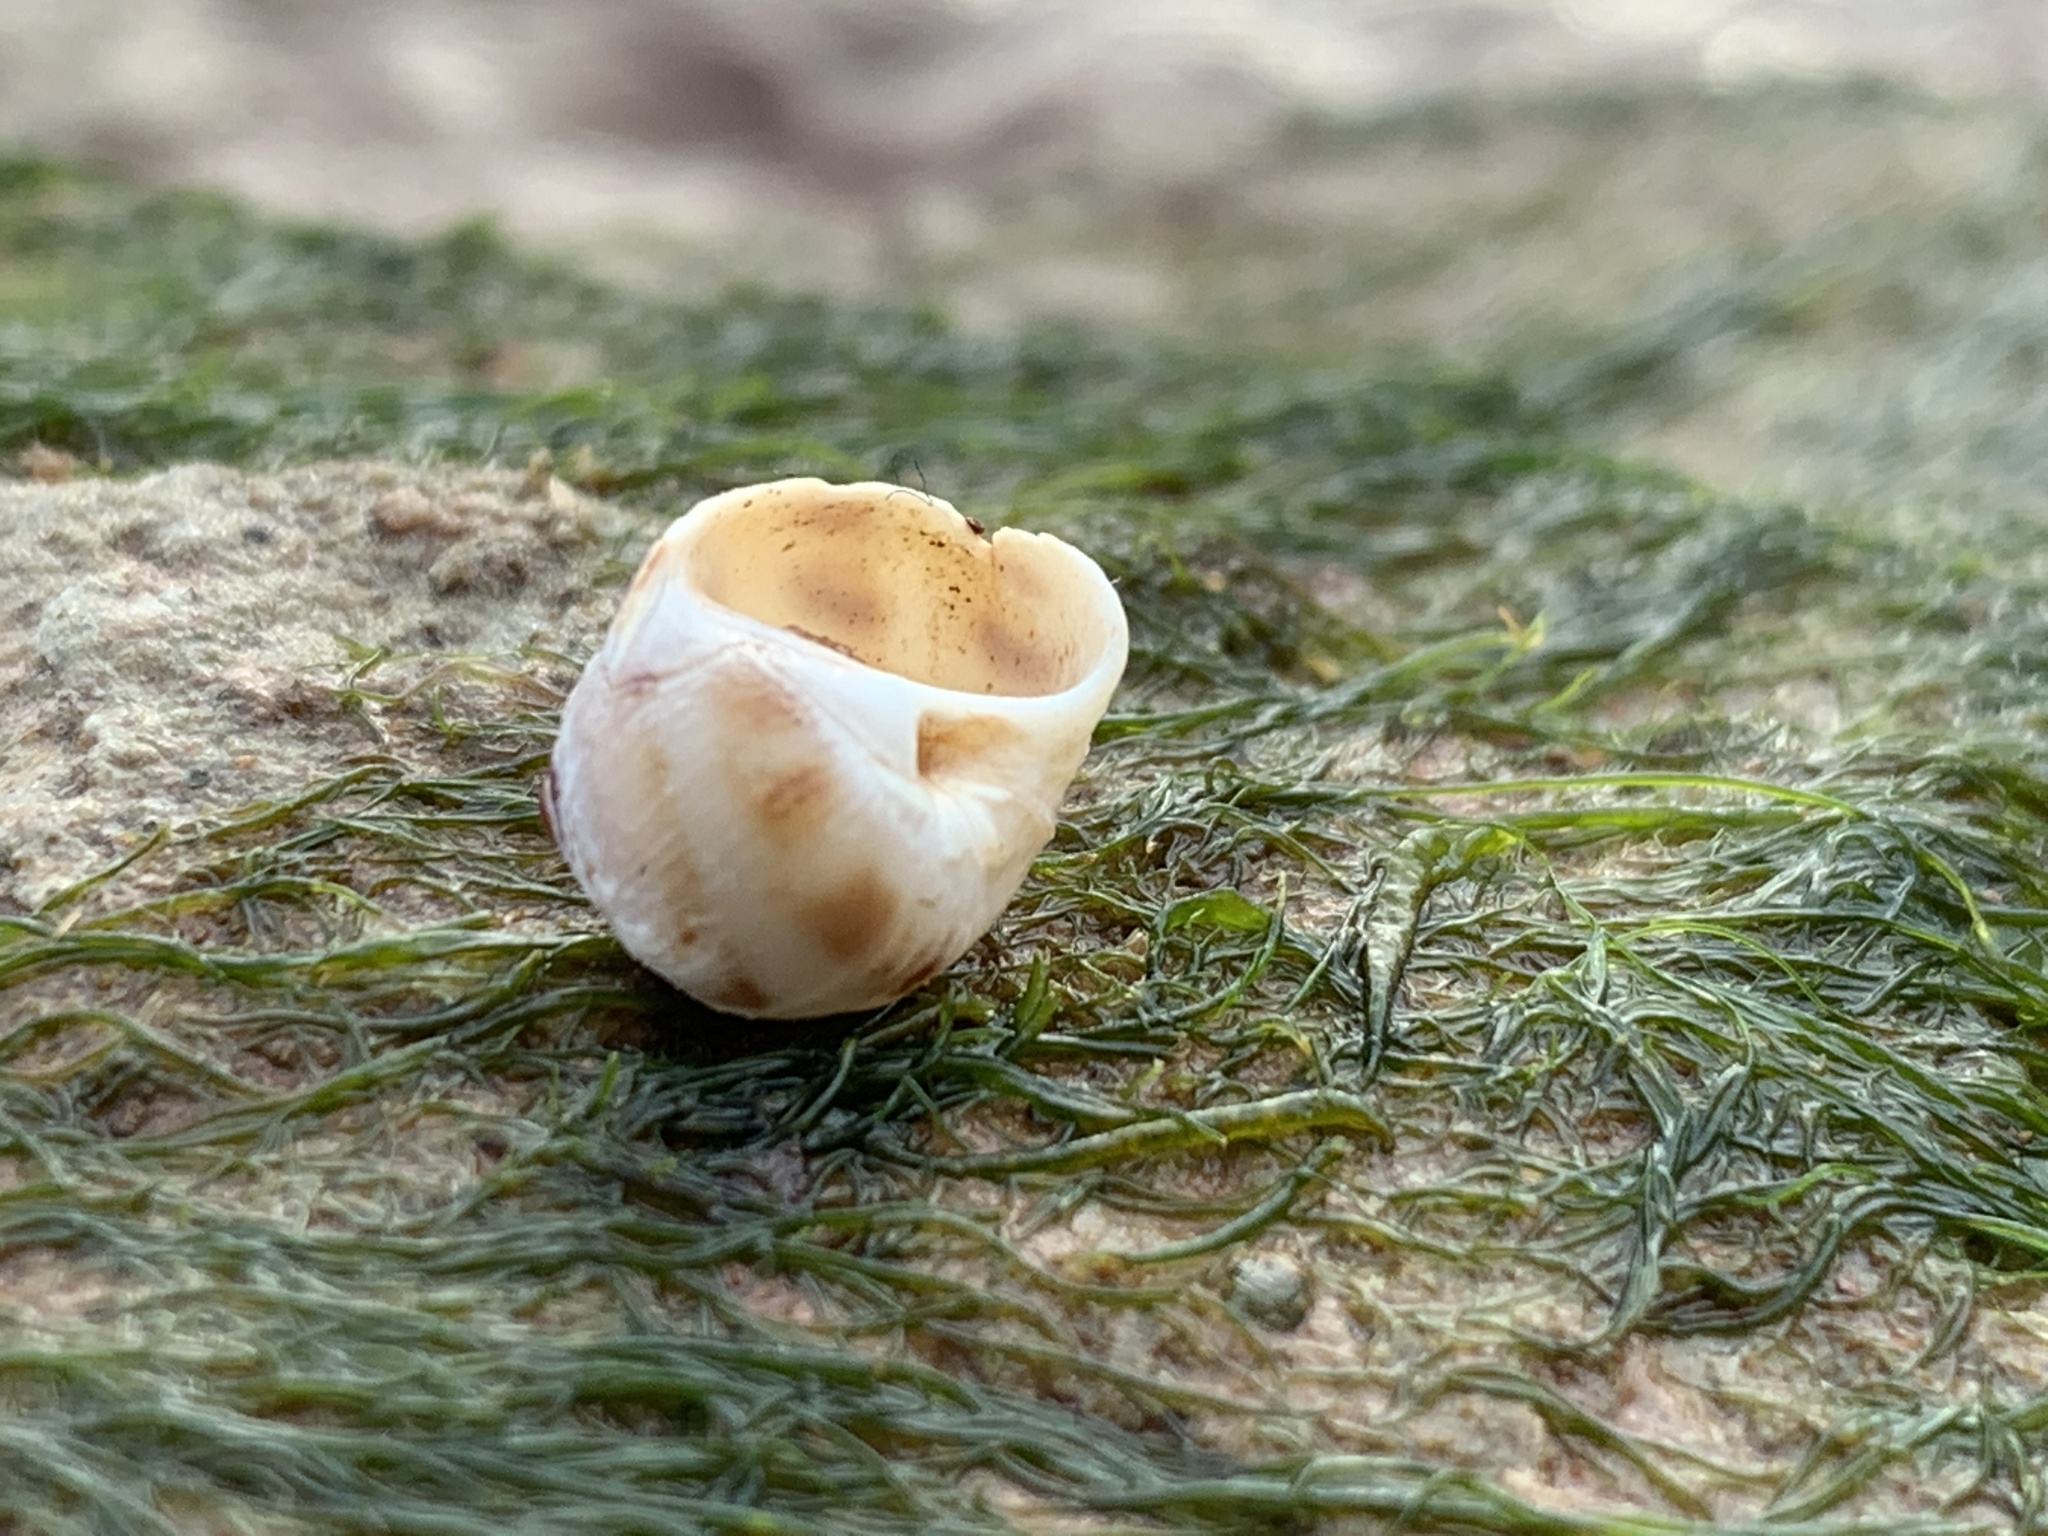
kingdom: Animalia
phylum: Mollusca
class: Gastropoda
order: Littorinimorpha
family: Naticidae
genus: Euspira
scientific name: Euspira triseriata
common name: Spotted moonsnail
